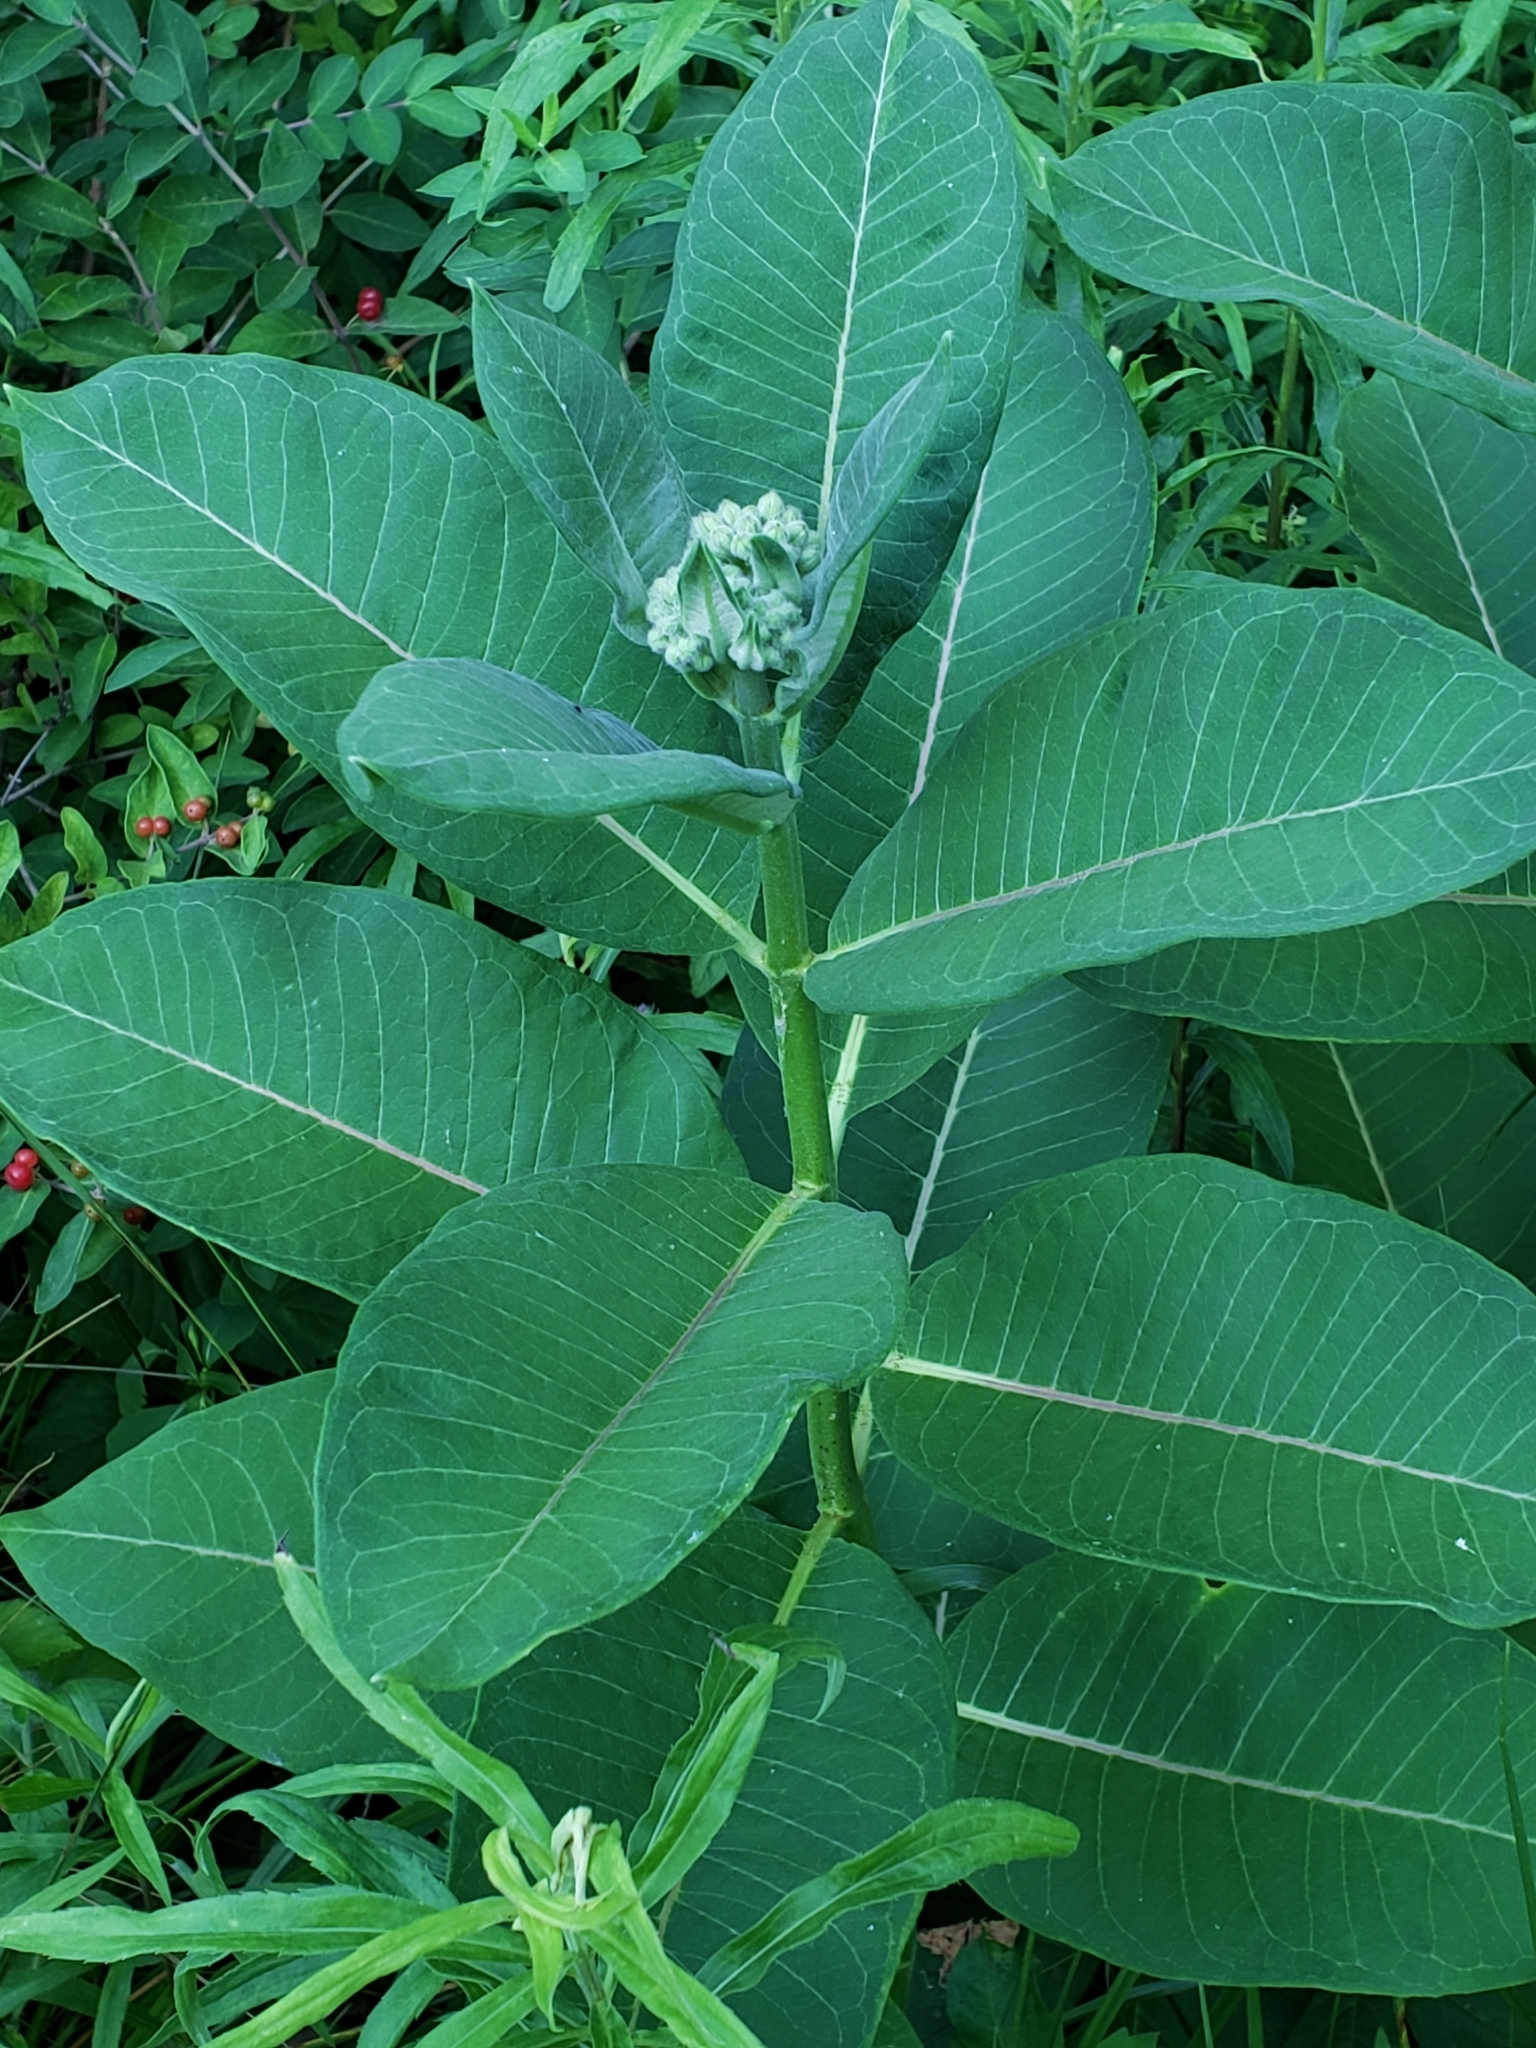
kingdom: Plantae
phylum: Tracheophyta
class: Magnoliopsida
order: Gentianales
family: Apocynaceae
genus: Asclepias
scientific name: Asclepias syriaca
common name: Common milkweed
